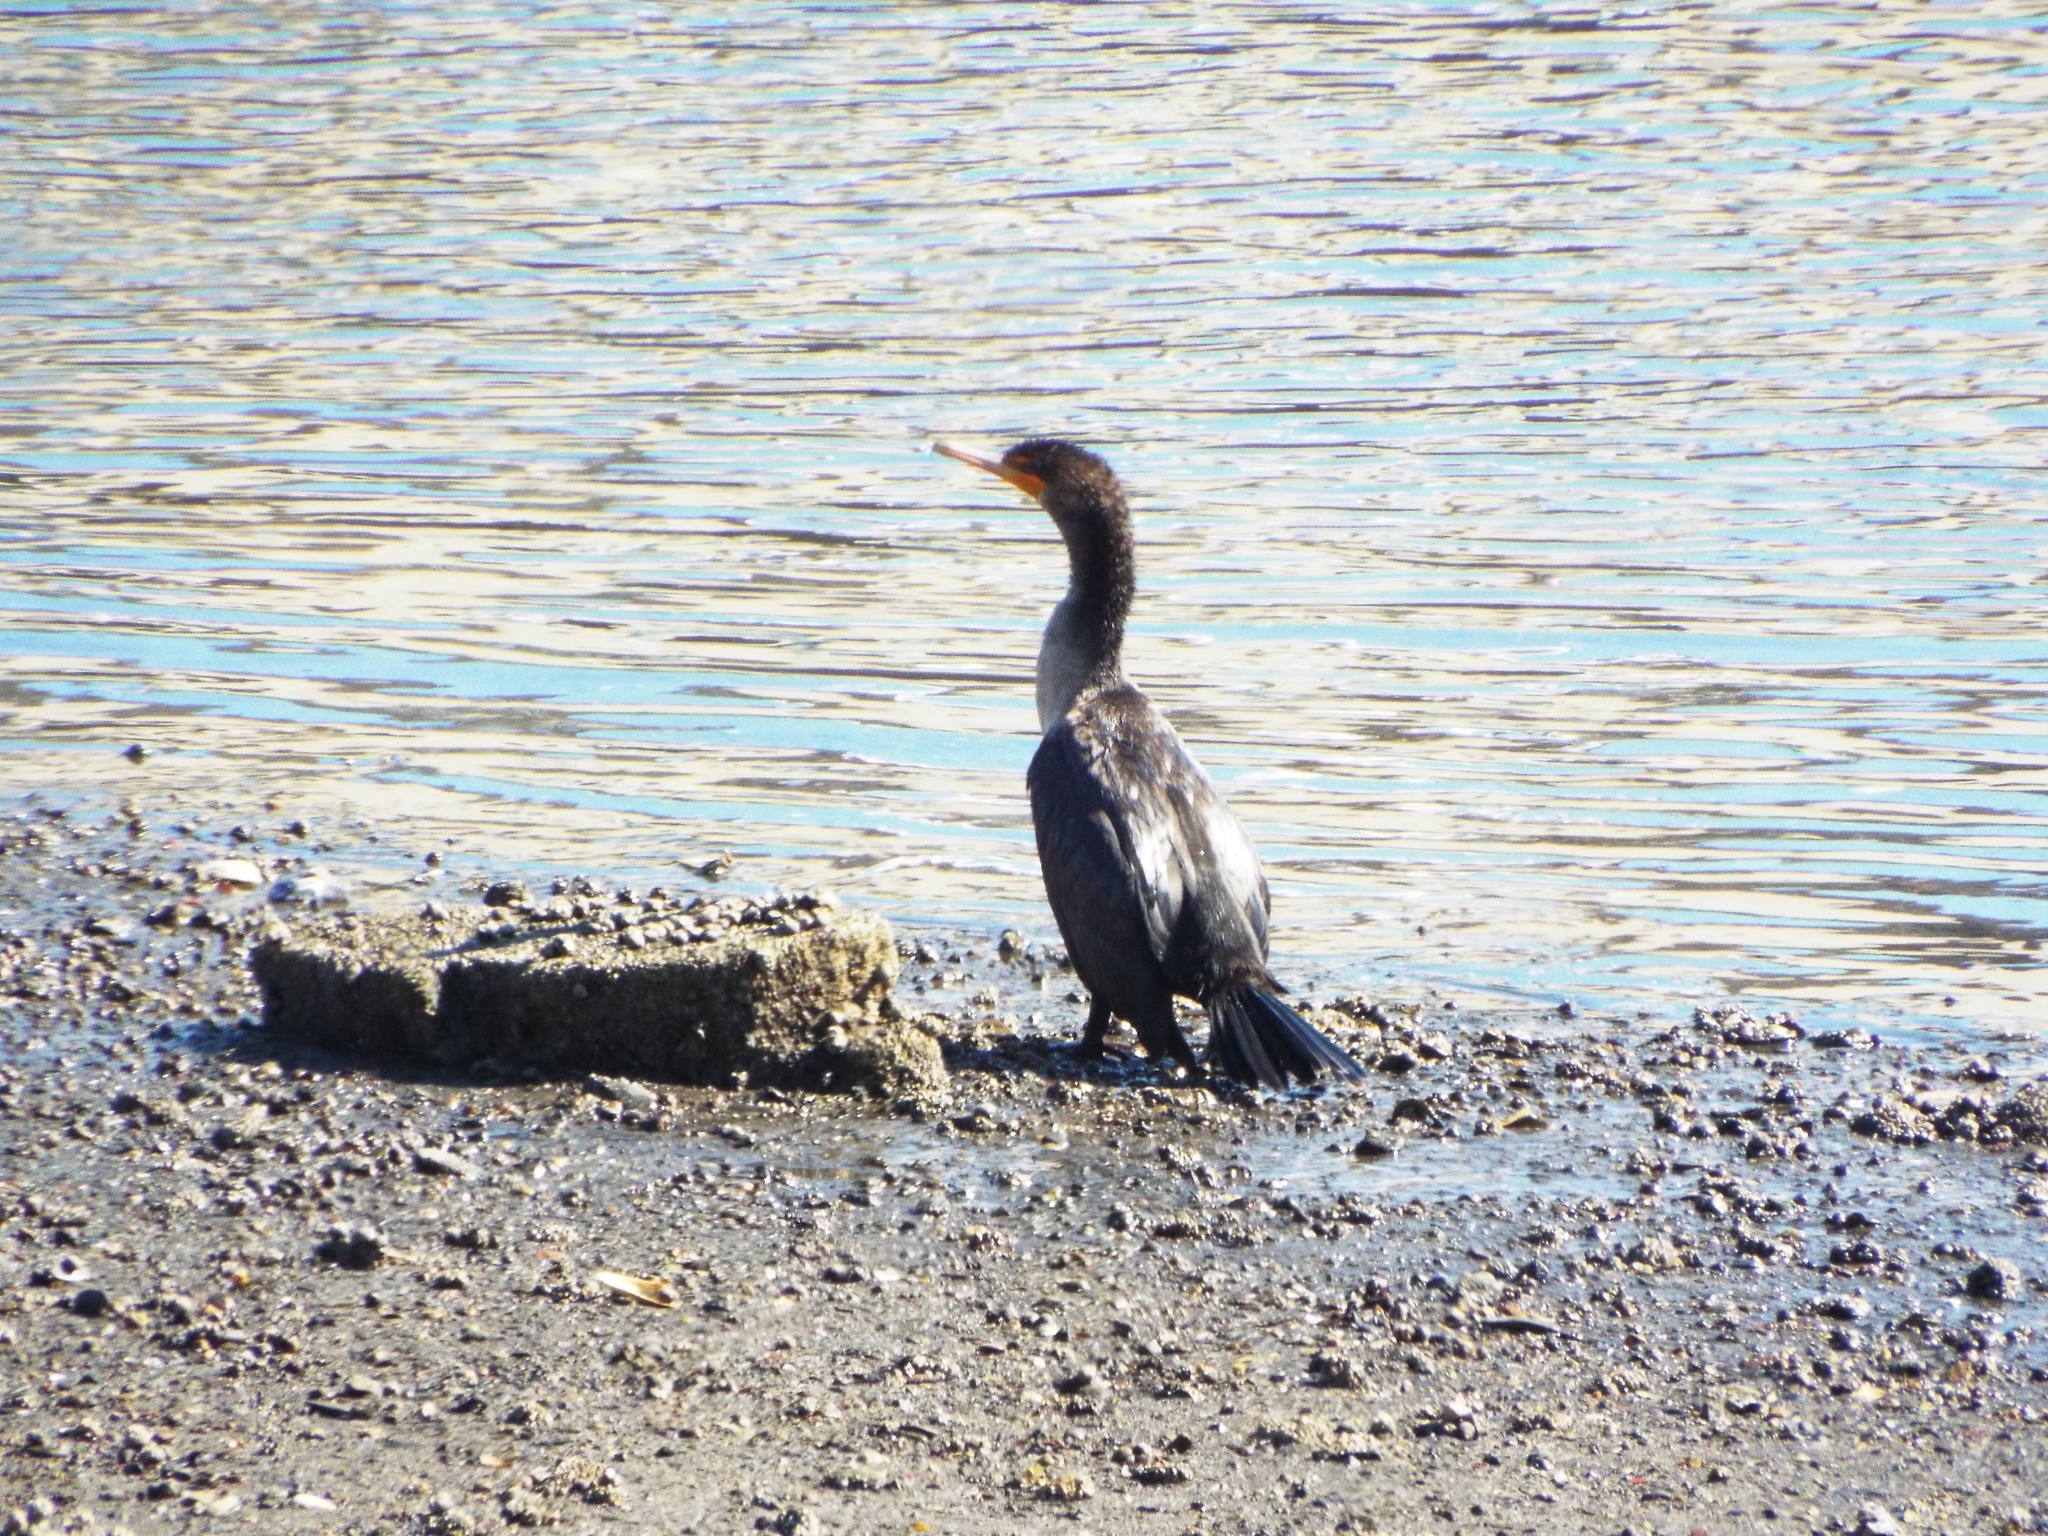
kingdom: Animalia
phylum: Chordata
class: Aves
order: Suliformes
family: Phalacrocoracidae
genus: Phalacrocorax
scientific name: Phalacrocorax auritus
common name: Double-crested cormorant
